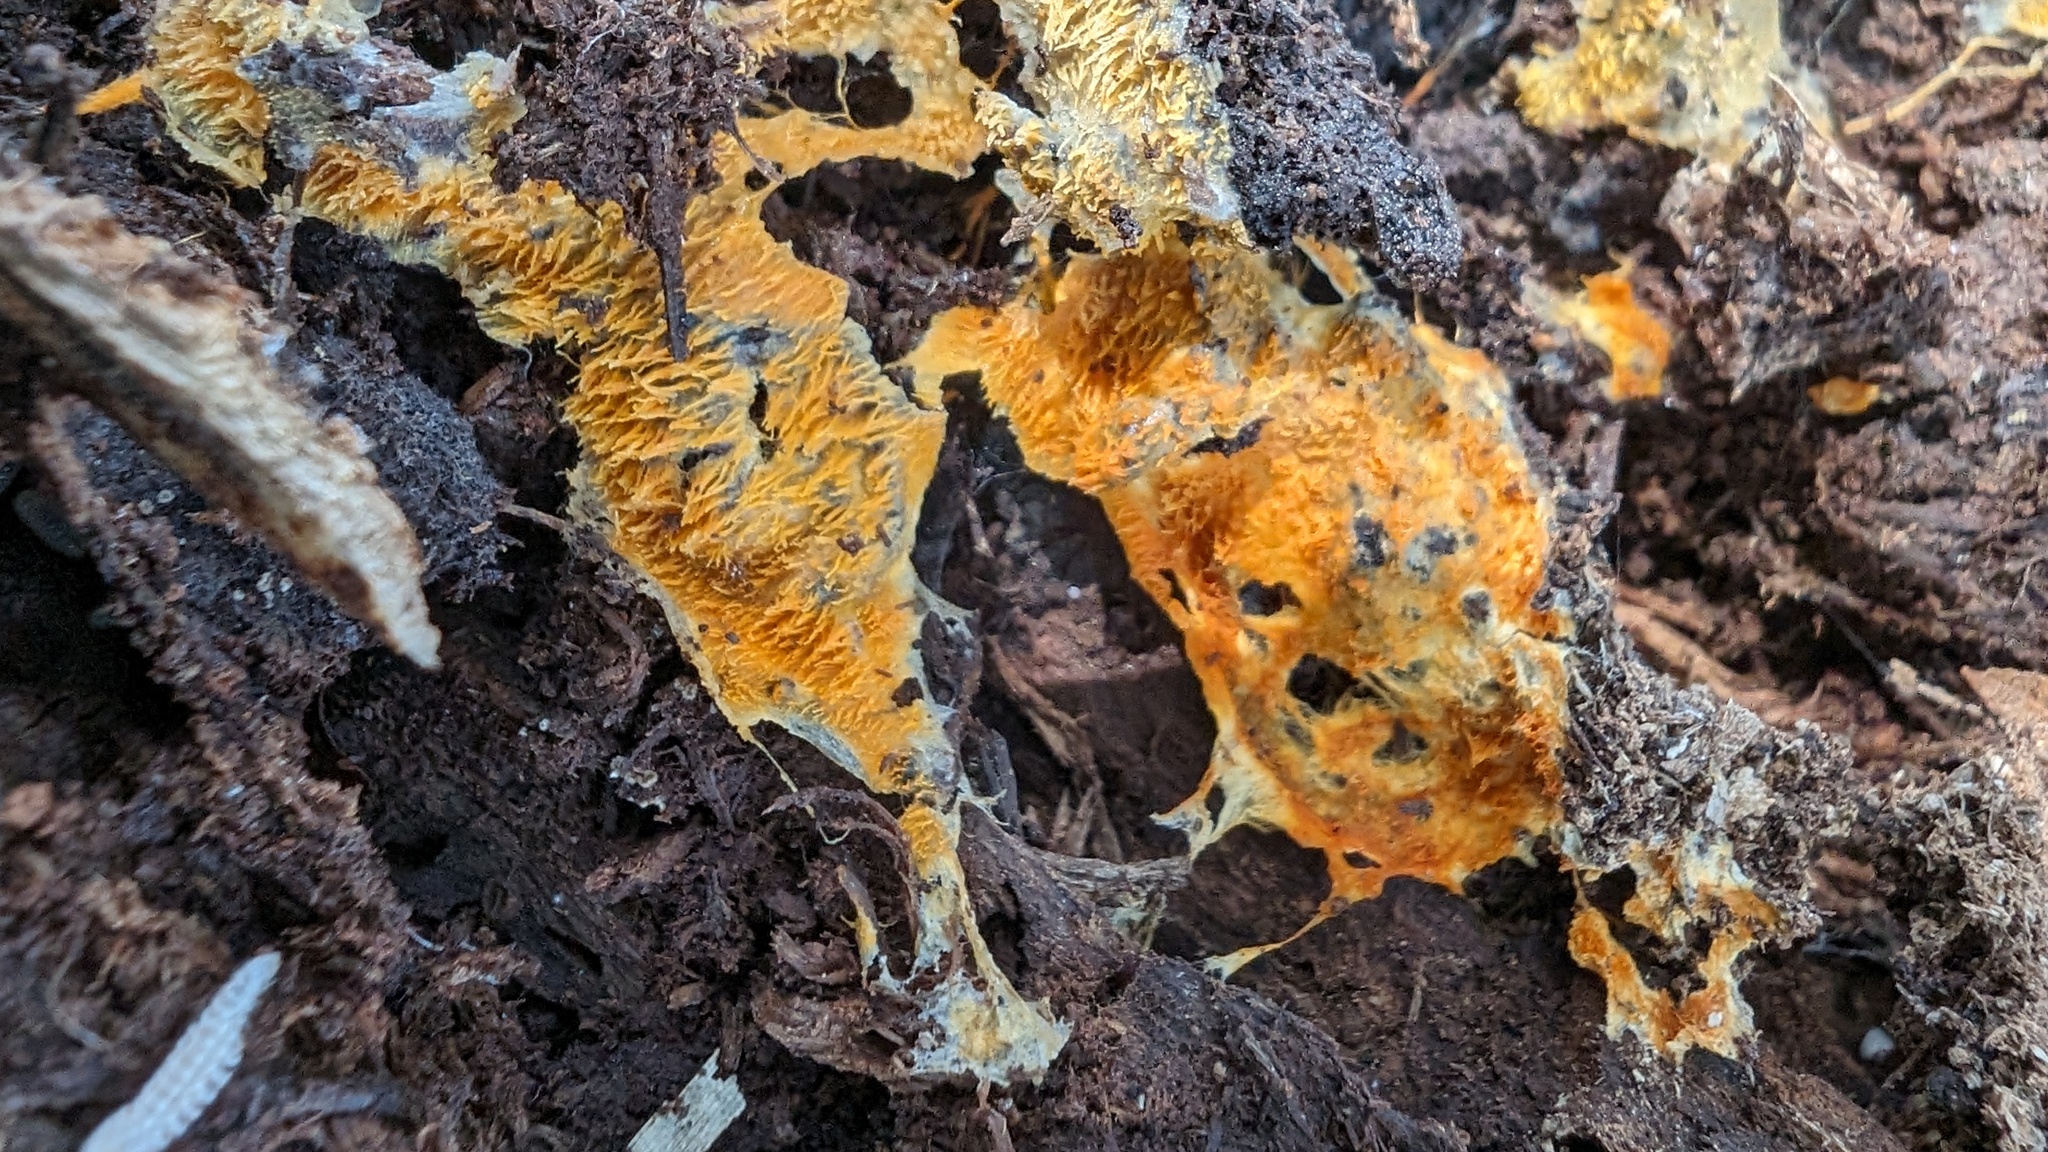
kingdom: Fungi
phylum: Basidiomycota
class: Agaricomycetes
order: Polyporales
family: Meruliaceae
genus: Hydnophlebia
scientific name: Hydnophlebia chrysorhiza
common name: Spreading yellow tooth
